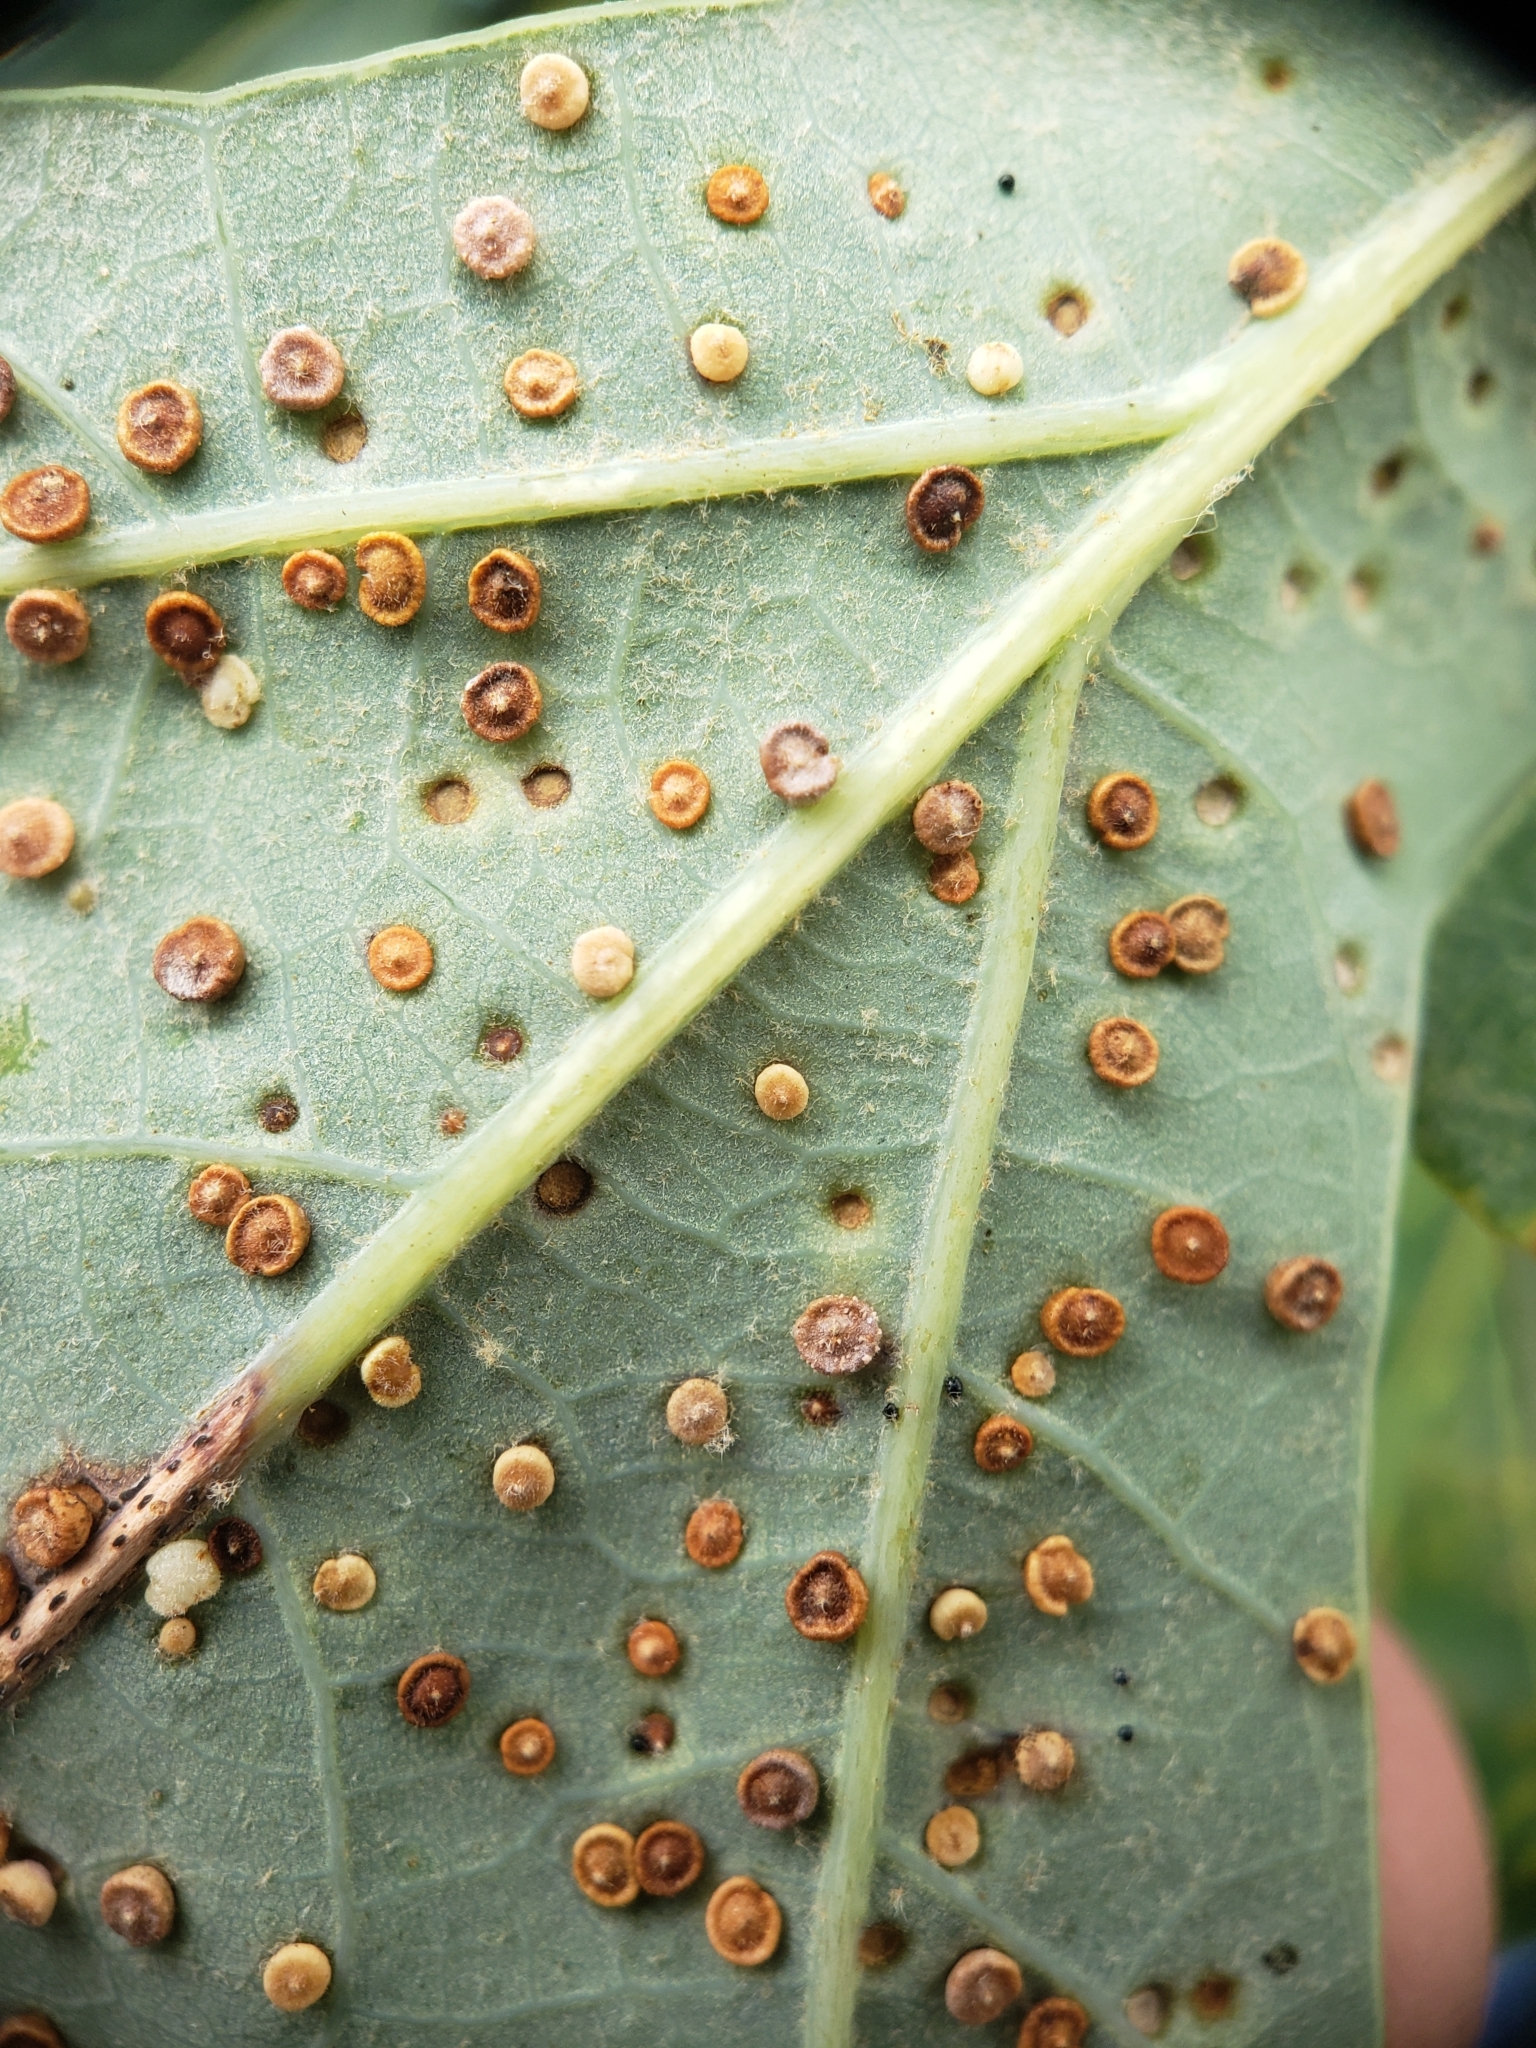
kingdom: Animalia
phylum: Arthropoda
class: Insecta
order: Hymenoptera
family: Cynipidae
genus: Neuroterus
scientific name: Neuroterus
